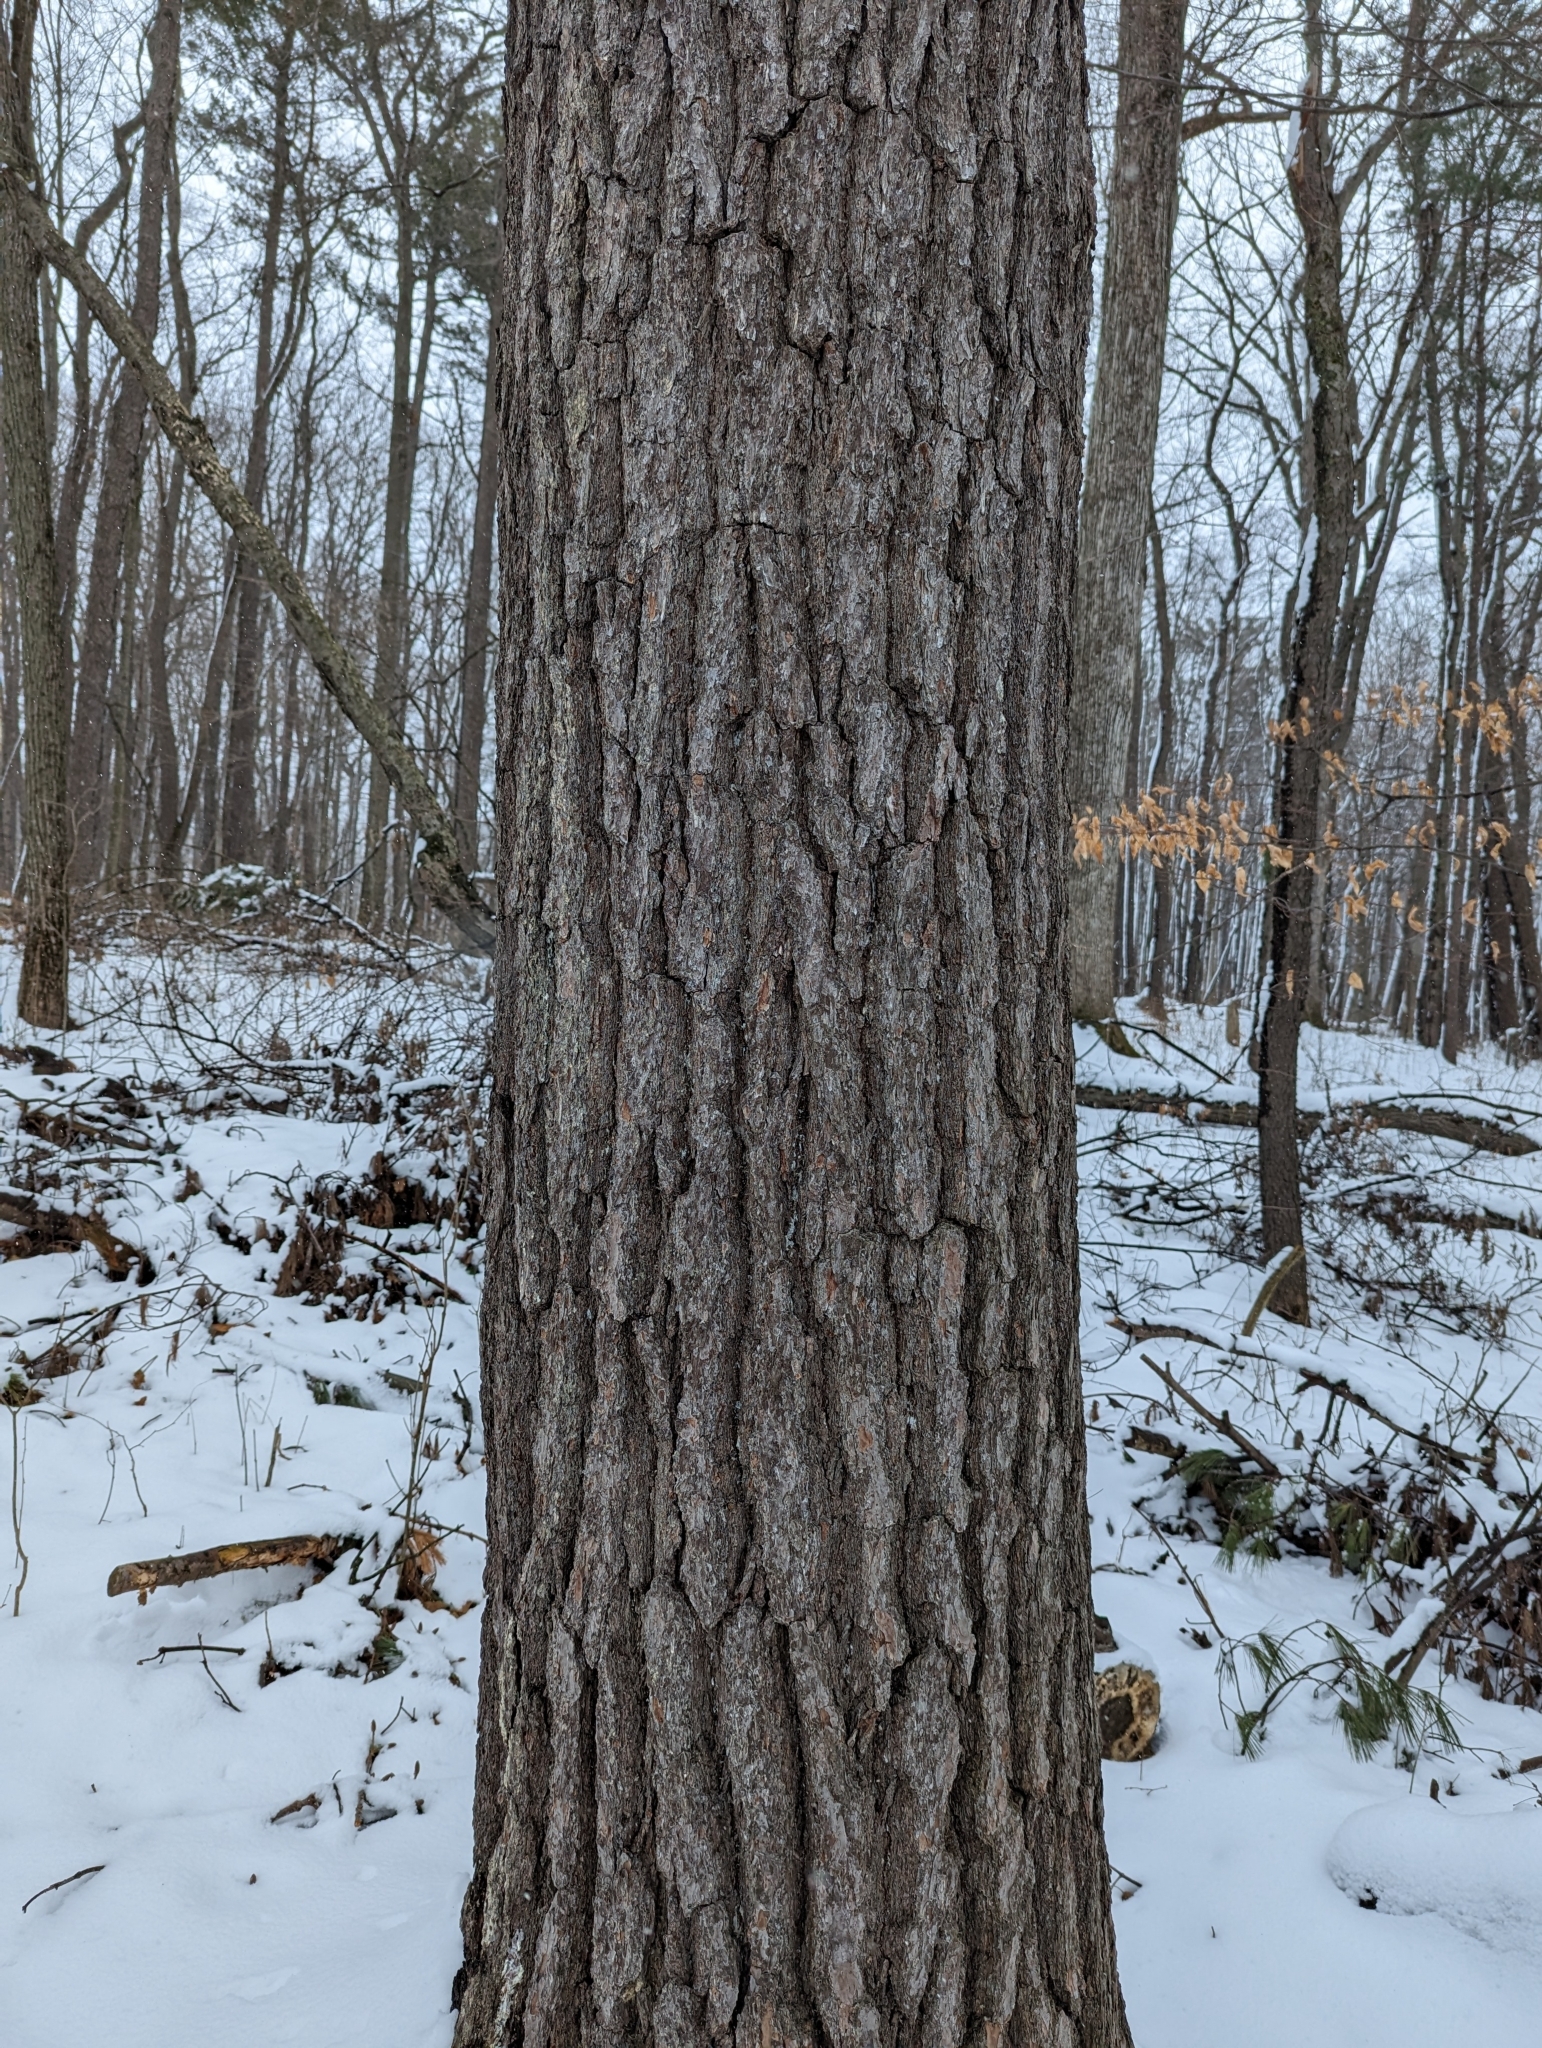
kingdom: Plantae
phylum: Tracheophyta
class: Pinopsida
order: Pinales
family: Pinaceae
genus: Pinus
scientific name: Pinus strobus
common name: Weymouth pine
